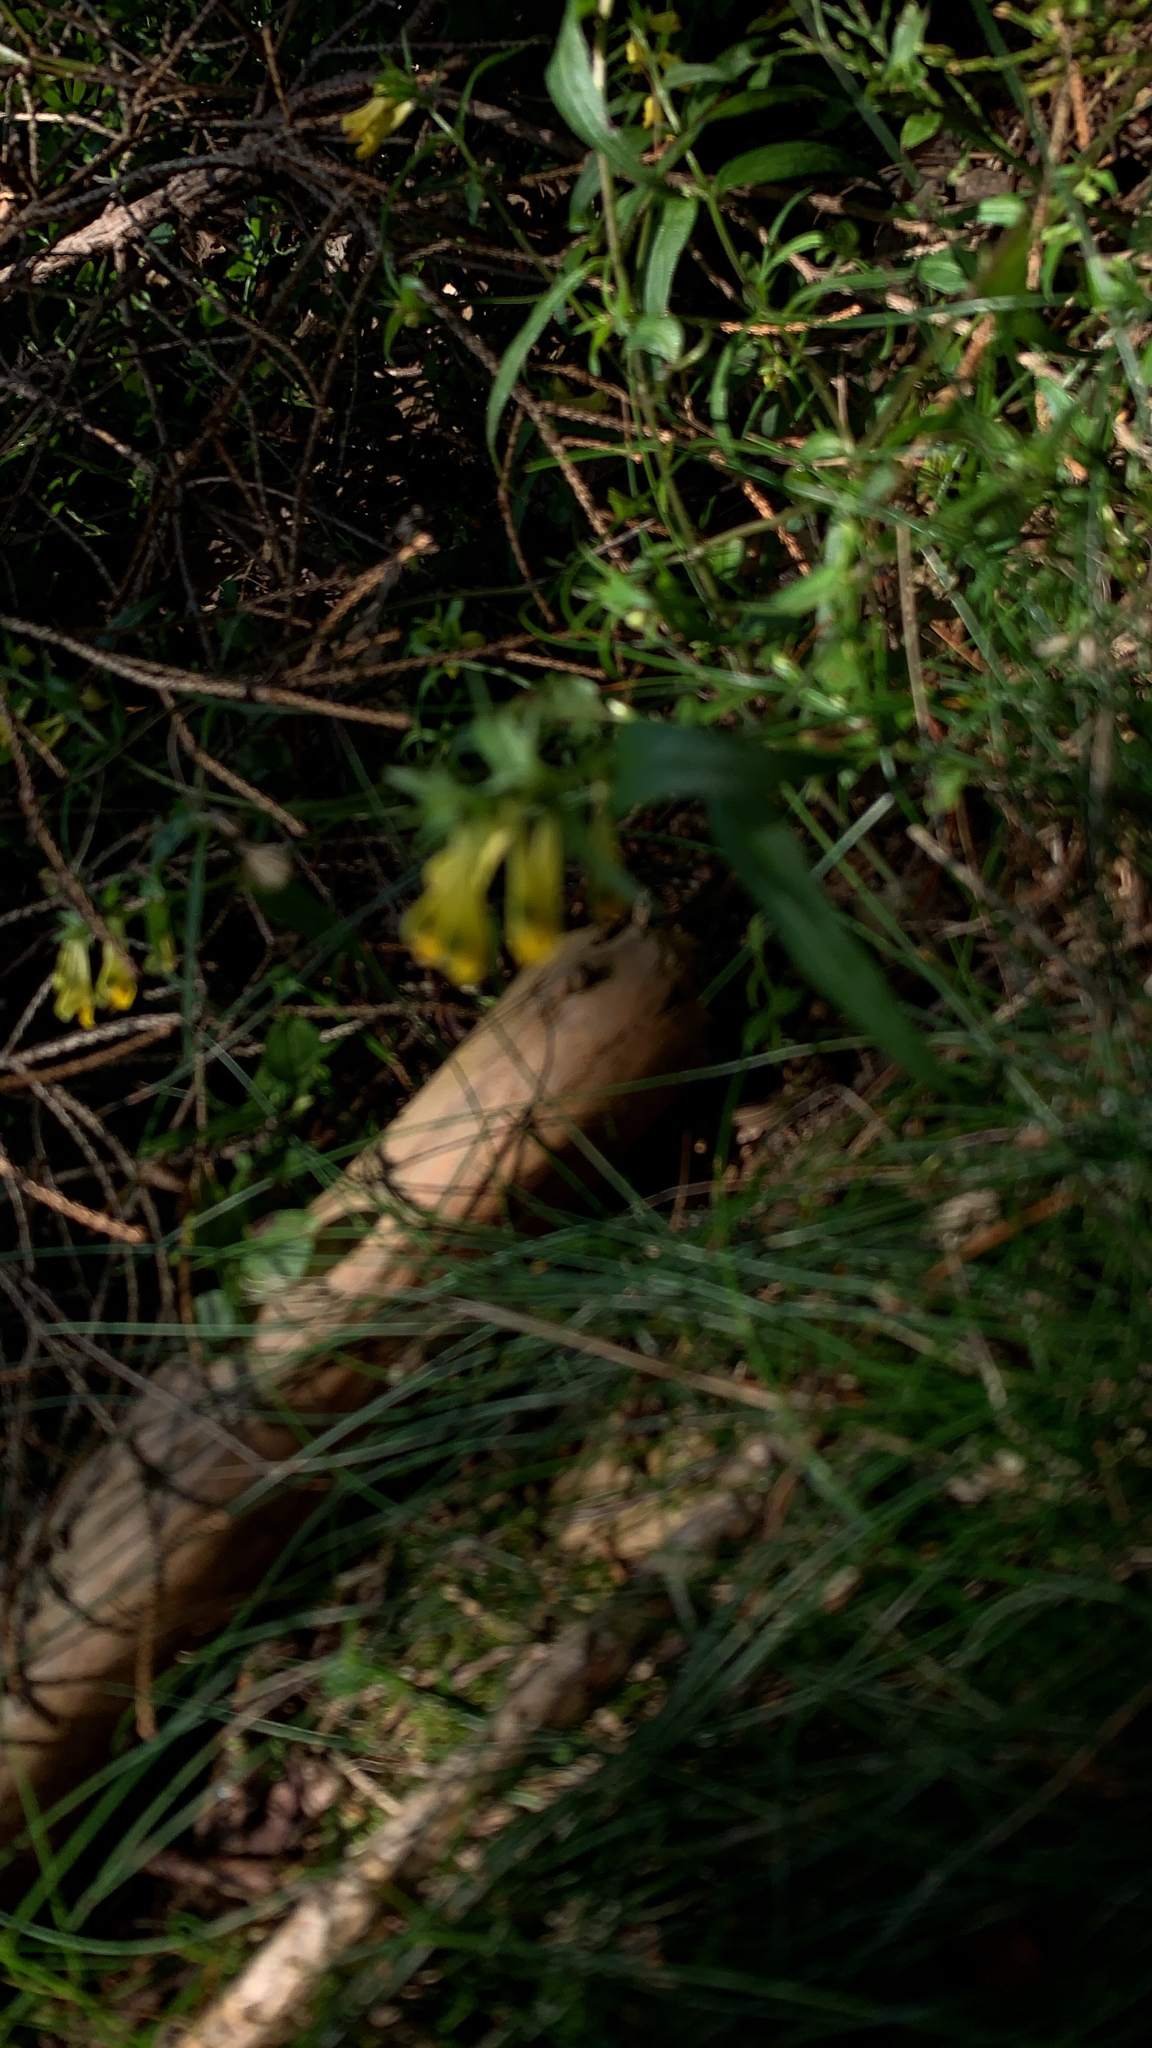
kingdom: Plantae
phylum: Tracheophyta
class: Magnoliopsida
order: Lamiales
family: Orobanchaceae
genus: Melampyrum
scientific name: Melampyrum pratense
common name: Common cow-wheat
